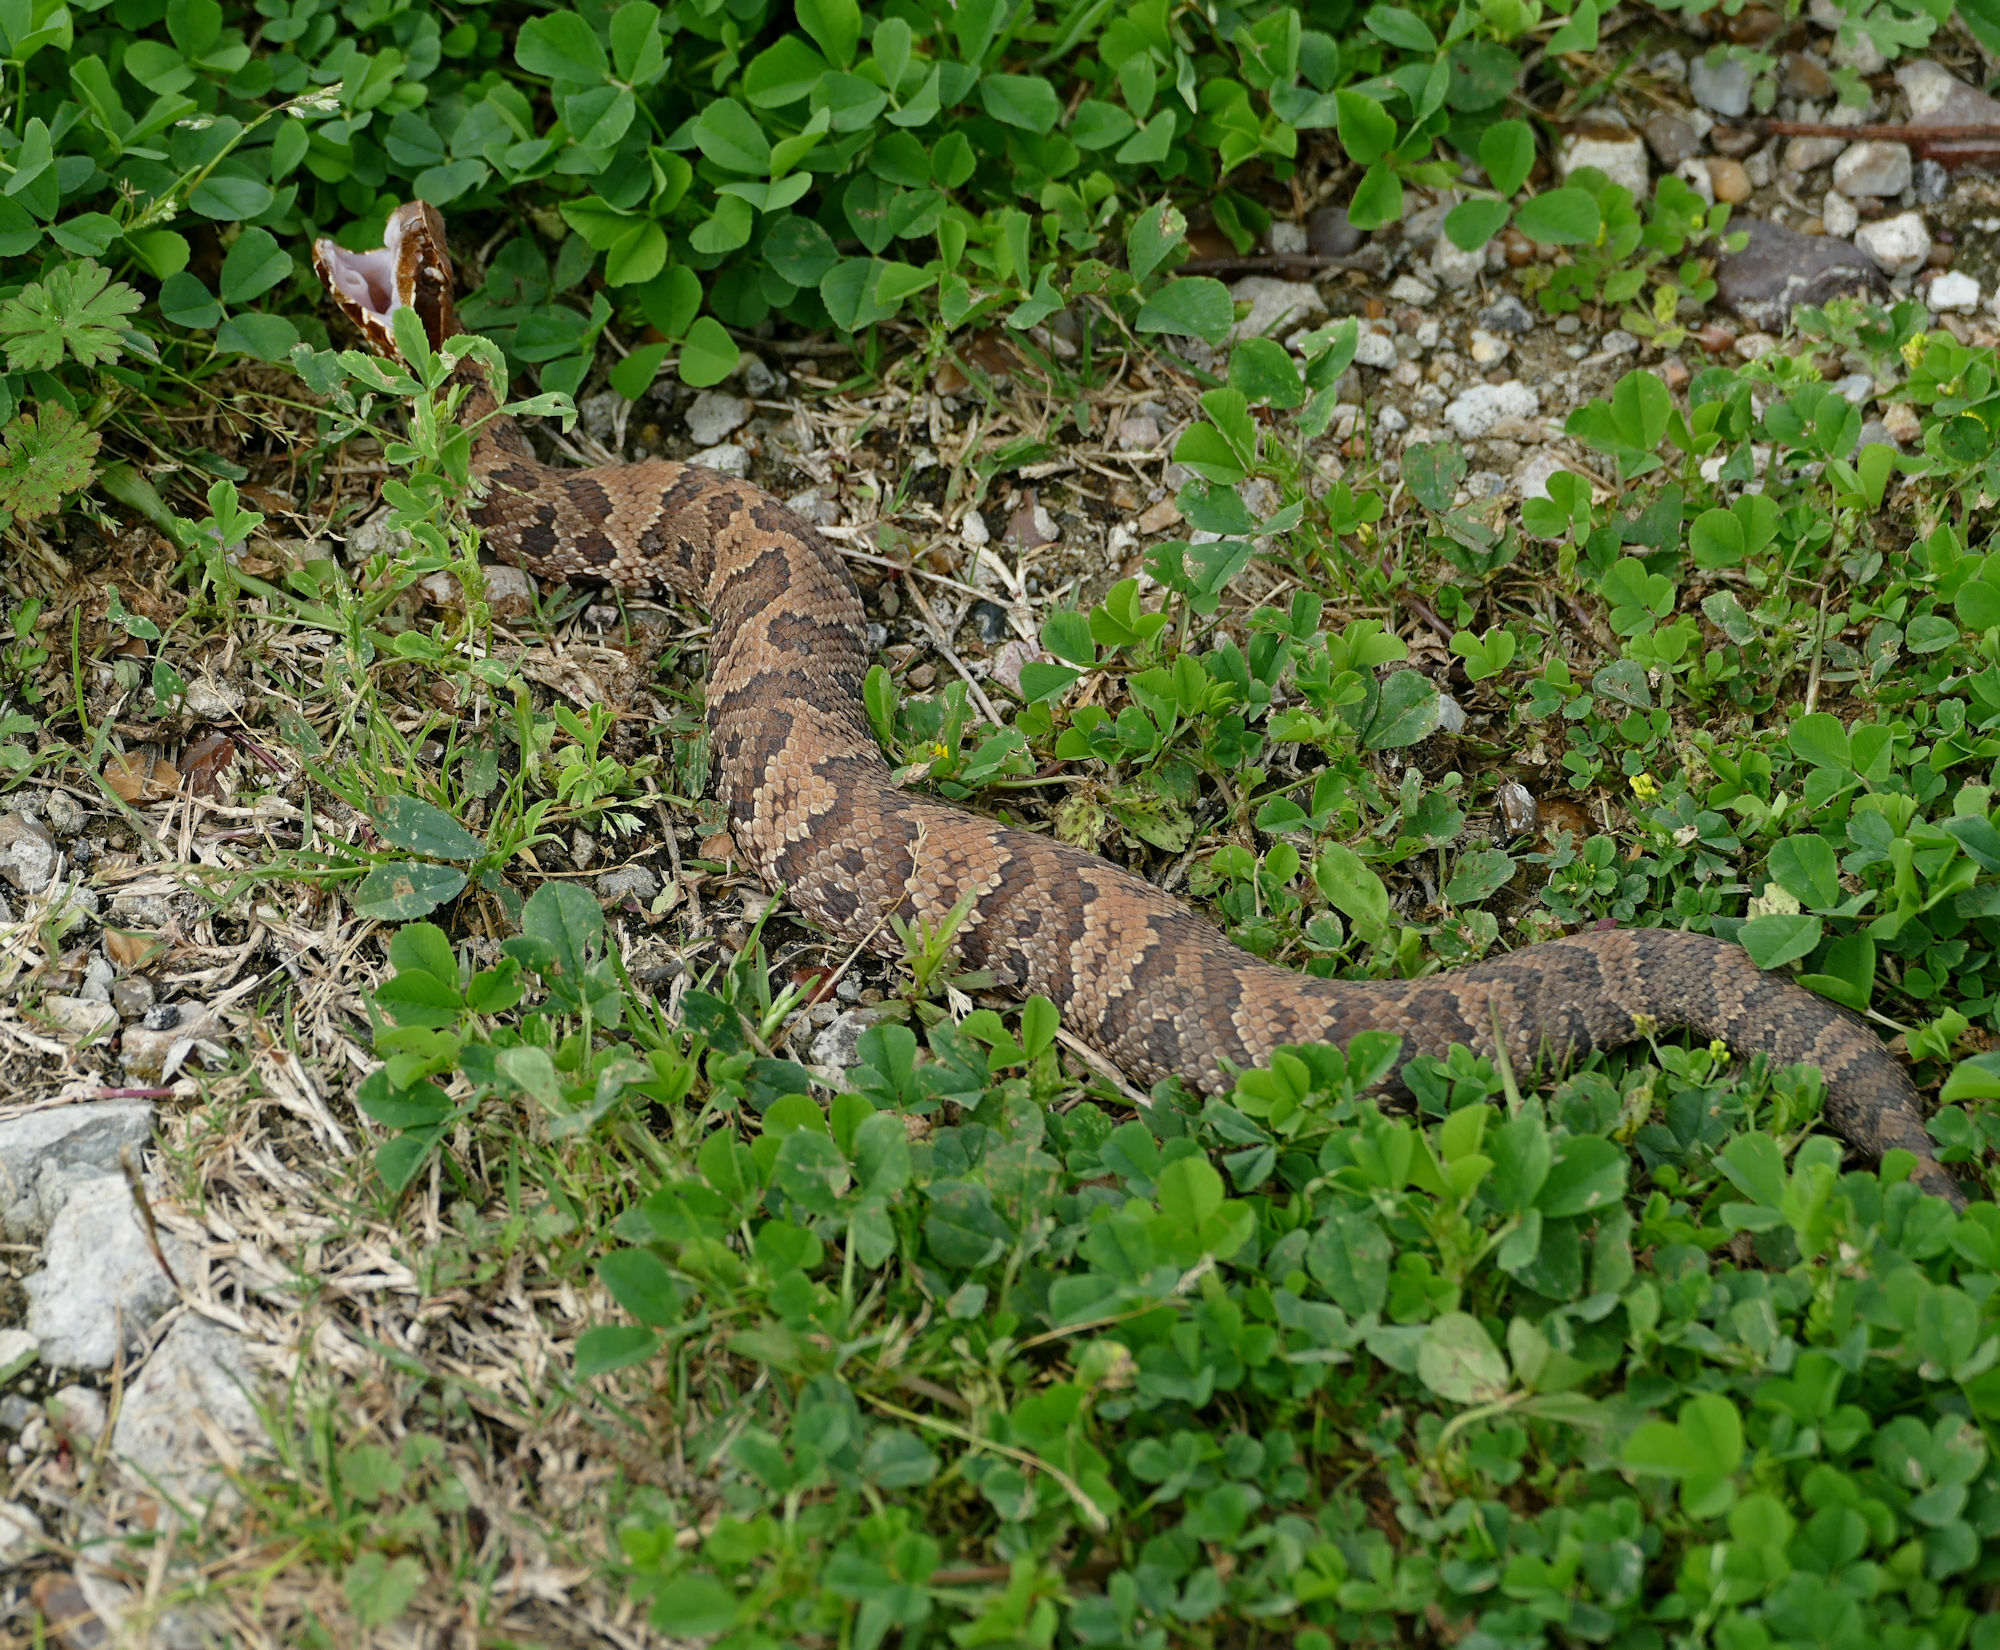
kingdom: Animalia
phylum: Chordata
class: Squamata
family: Viperidae
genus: Agkistrodon
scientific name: Agkistrodon piscivorus
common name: Cottonmouth
